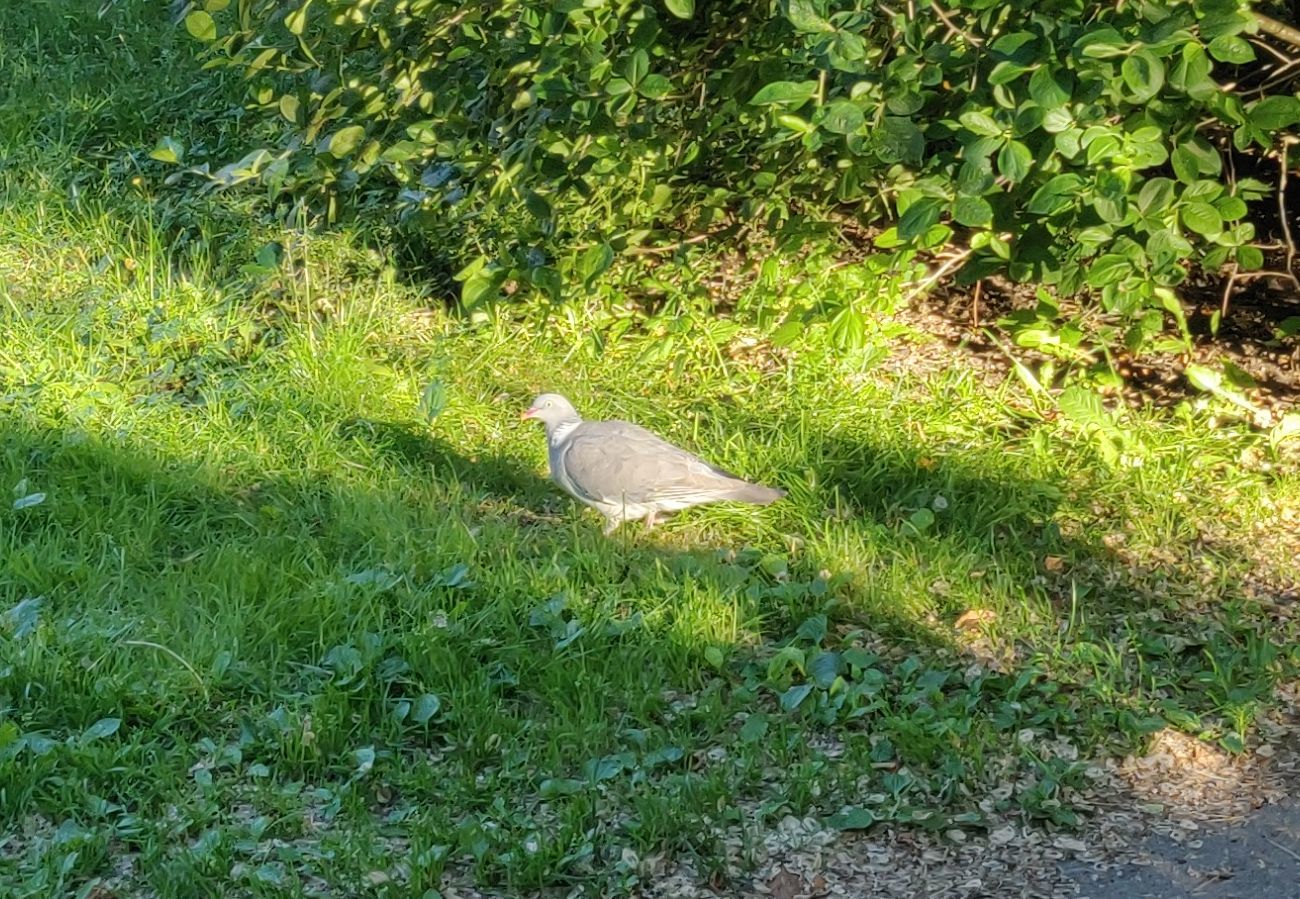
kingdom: Animalia
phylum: Chordata
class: Aves
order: Columbiformes
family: Columbidae
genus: Columba
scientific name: Columba palumbus
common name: Common wood pigeon
